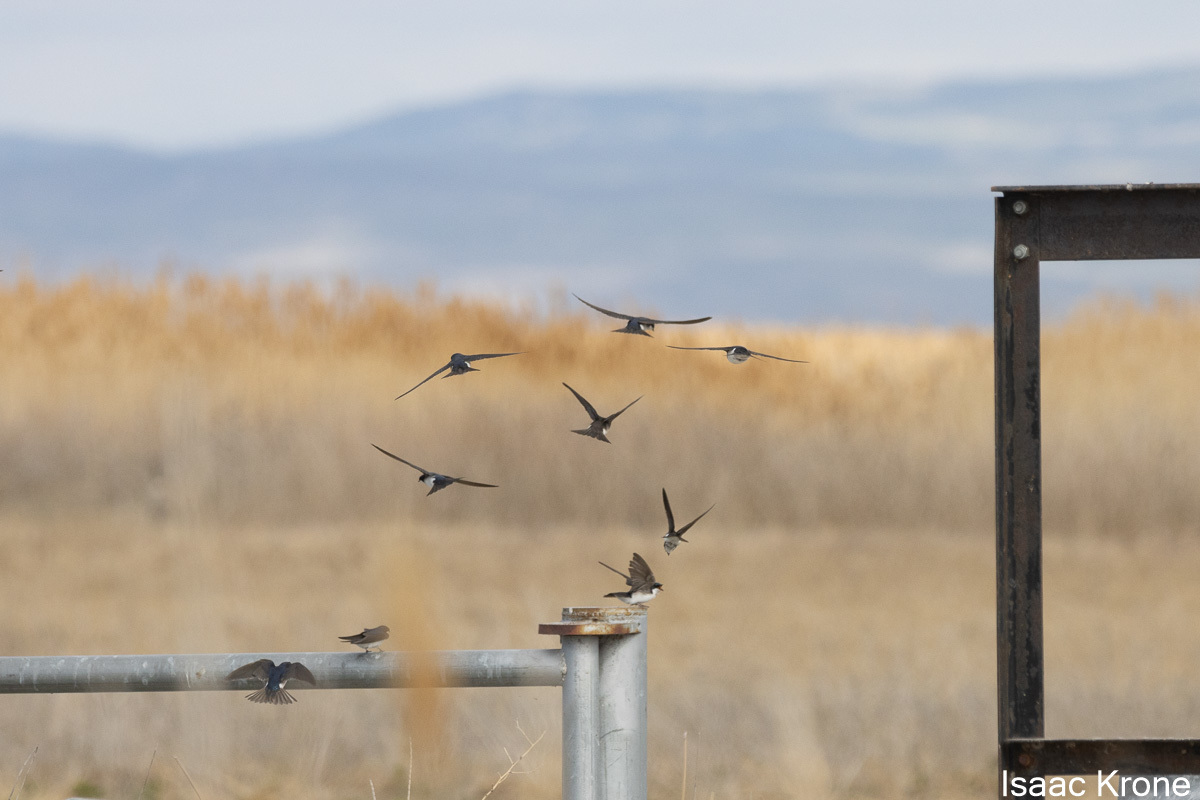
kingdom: Animalia
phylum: Chordata
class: Aves
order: Passeriformes
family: Hirundinidae
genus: Tachycineta
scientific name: Tachycineta bicolor
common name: Tree swallow
